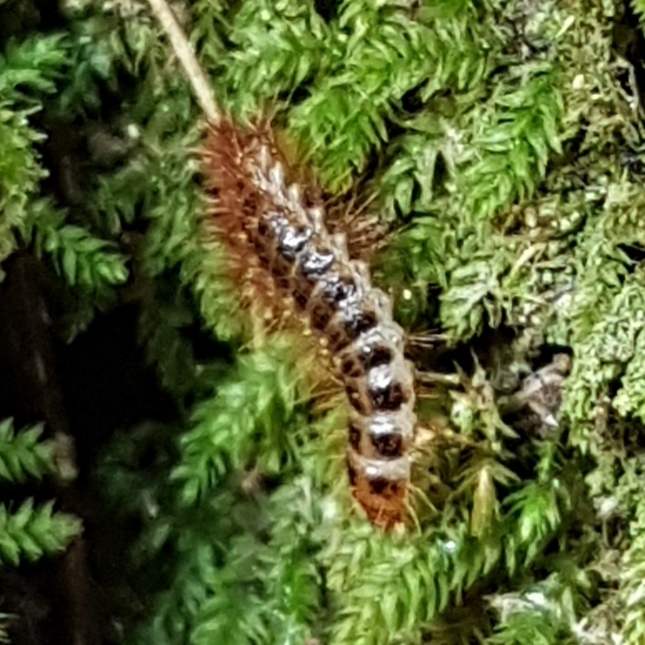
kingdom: Animalia
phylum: Arthropoda
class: Insecta
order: Coleoptera
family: Drilidae
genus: Drilus
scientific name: Drilus flavescens
